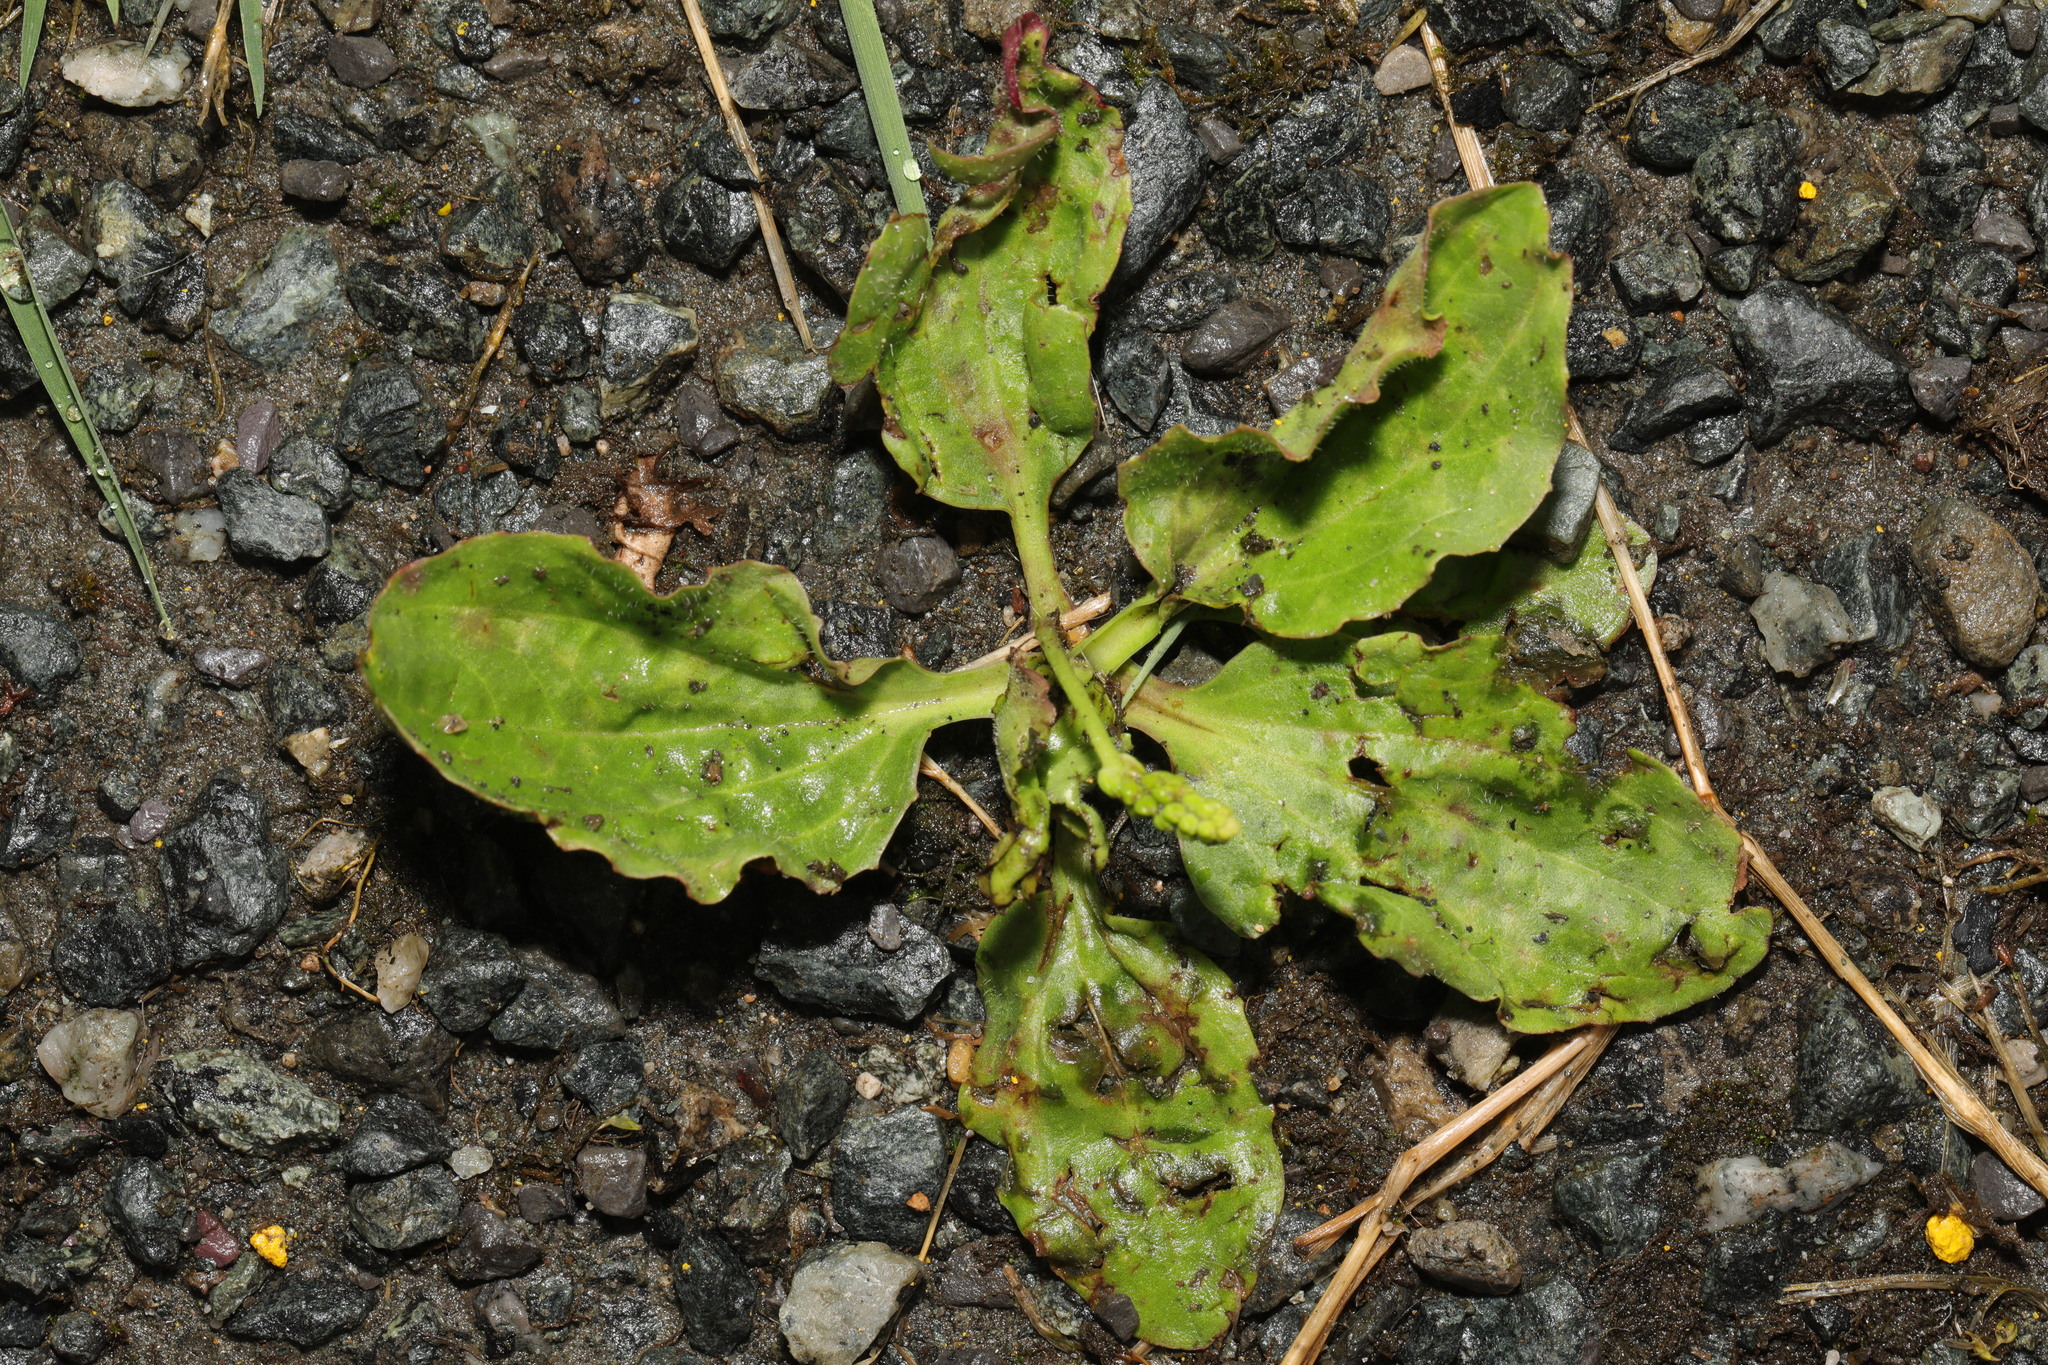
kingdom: Plantae
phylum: Tracheophyta
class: Magnoliopsida
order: Lamiales
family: Plantaginaceae
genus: Plantago
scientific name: Plantago major
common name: Common plantain
